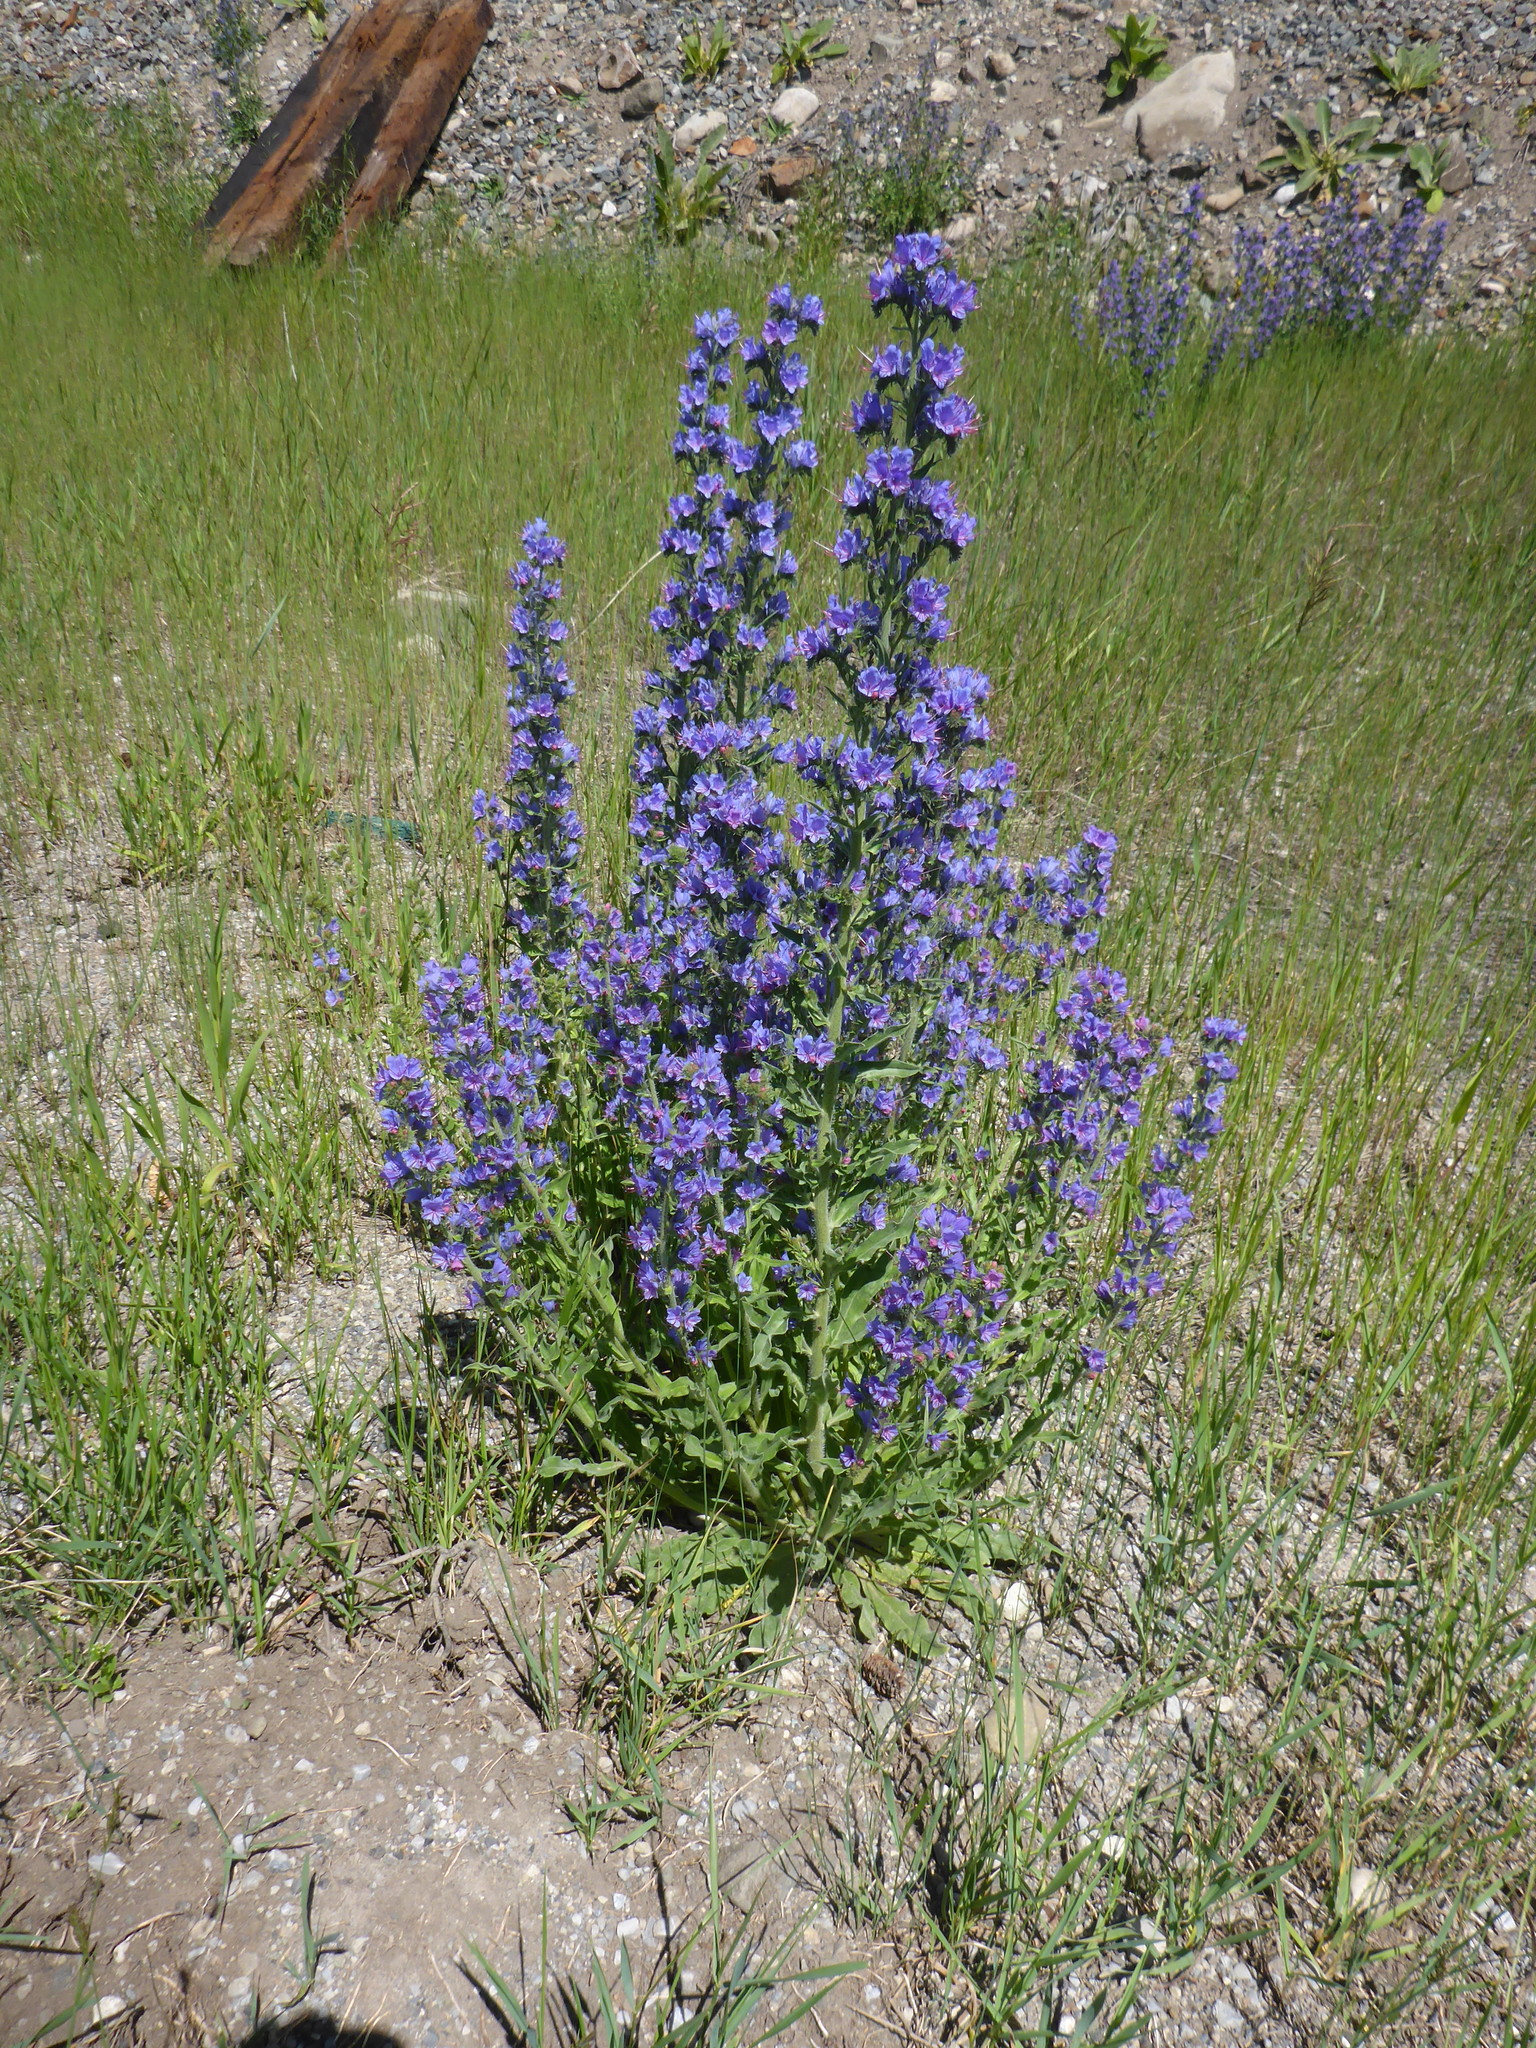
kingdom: Plantae
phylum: Tracheophyta
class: Magnoliopsida
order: Boraginales
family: Boraginaceae
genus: Echium
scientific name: Echium vulgare
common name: Common viper's bugloss
